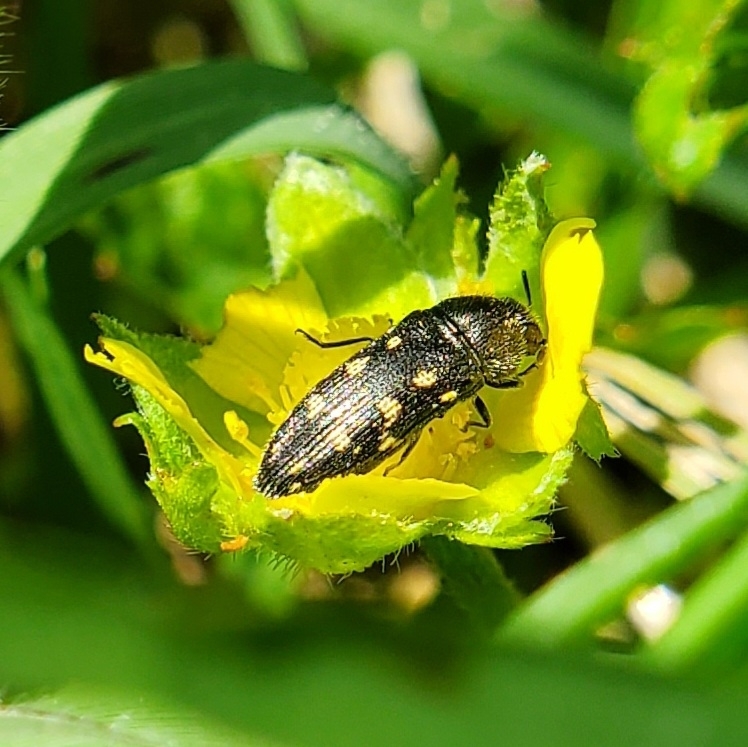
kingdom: Animalia
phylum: Arthropoda
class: Insecta
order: Coleoptera
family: Buprestidae
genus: Acmaeodera
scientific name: Acmaeodera tubulus
